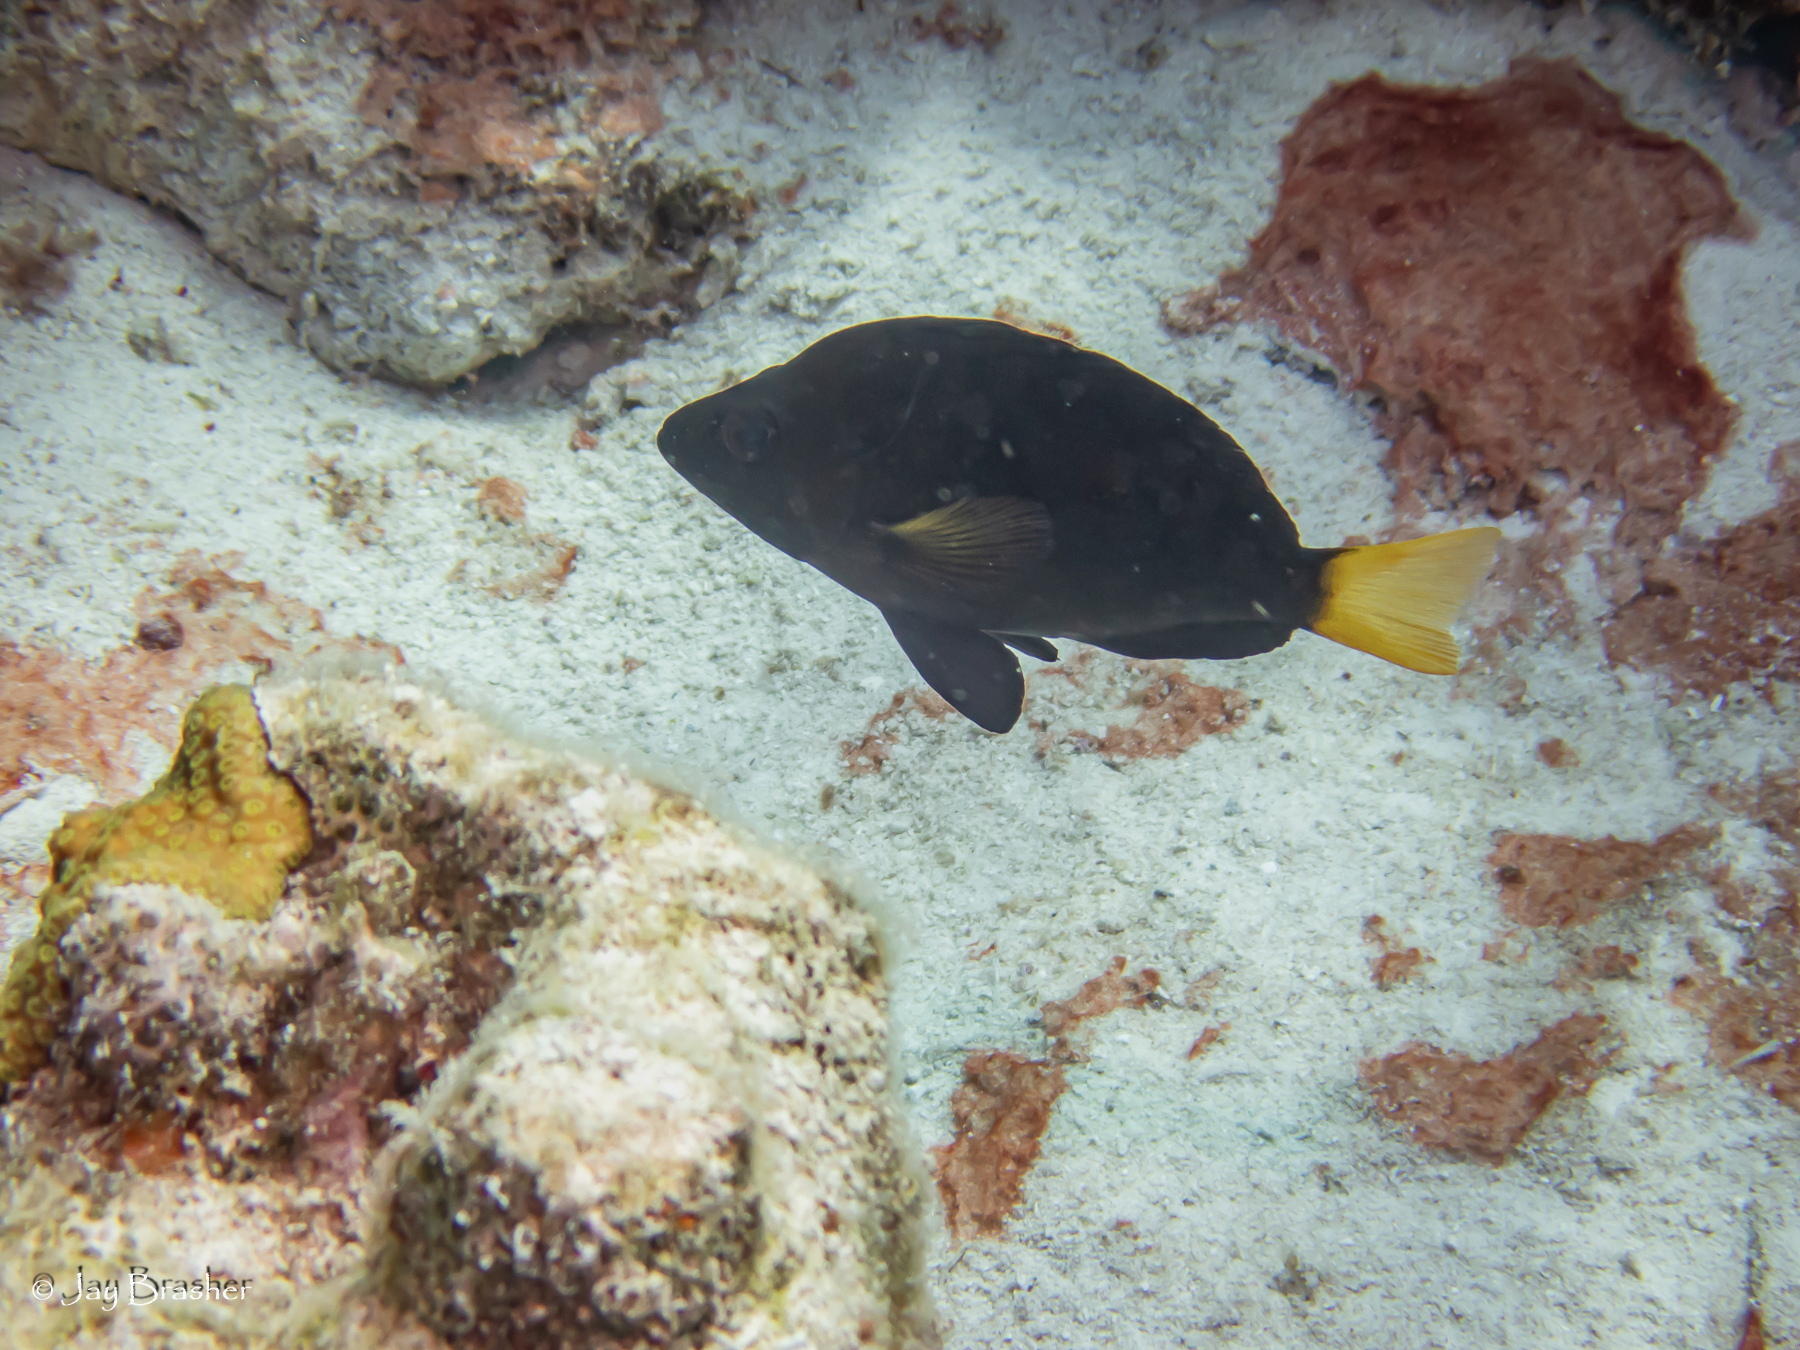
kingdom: Animalia
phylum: Chordata
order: Perciformes
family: Serranidae
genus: Hypoplectrus
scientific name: Hypoplectrus chlorurus
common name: Yellowtail hamlet
